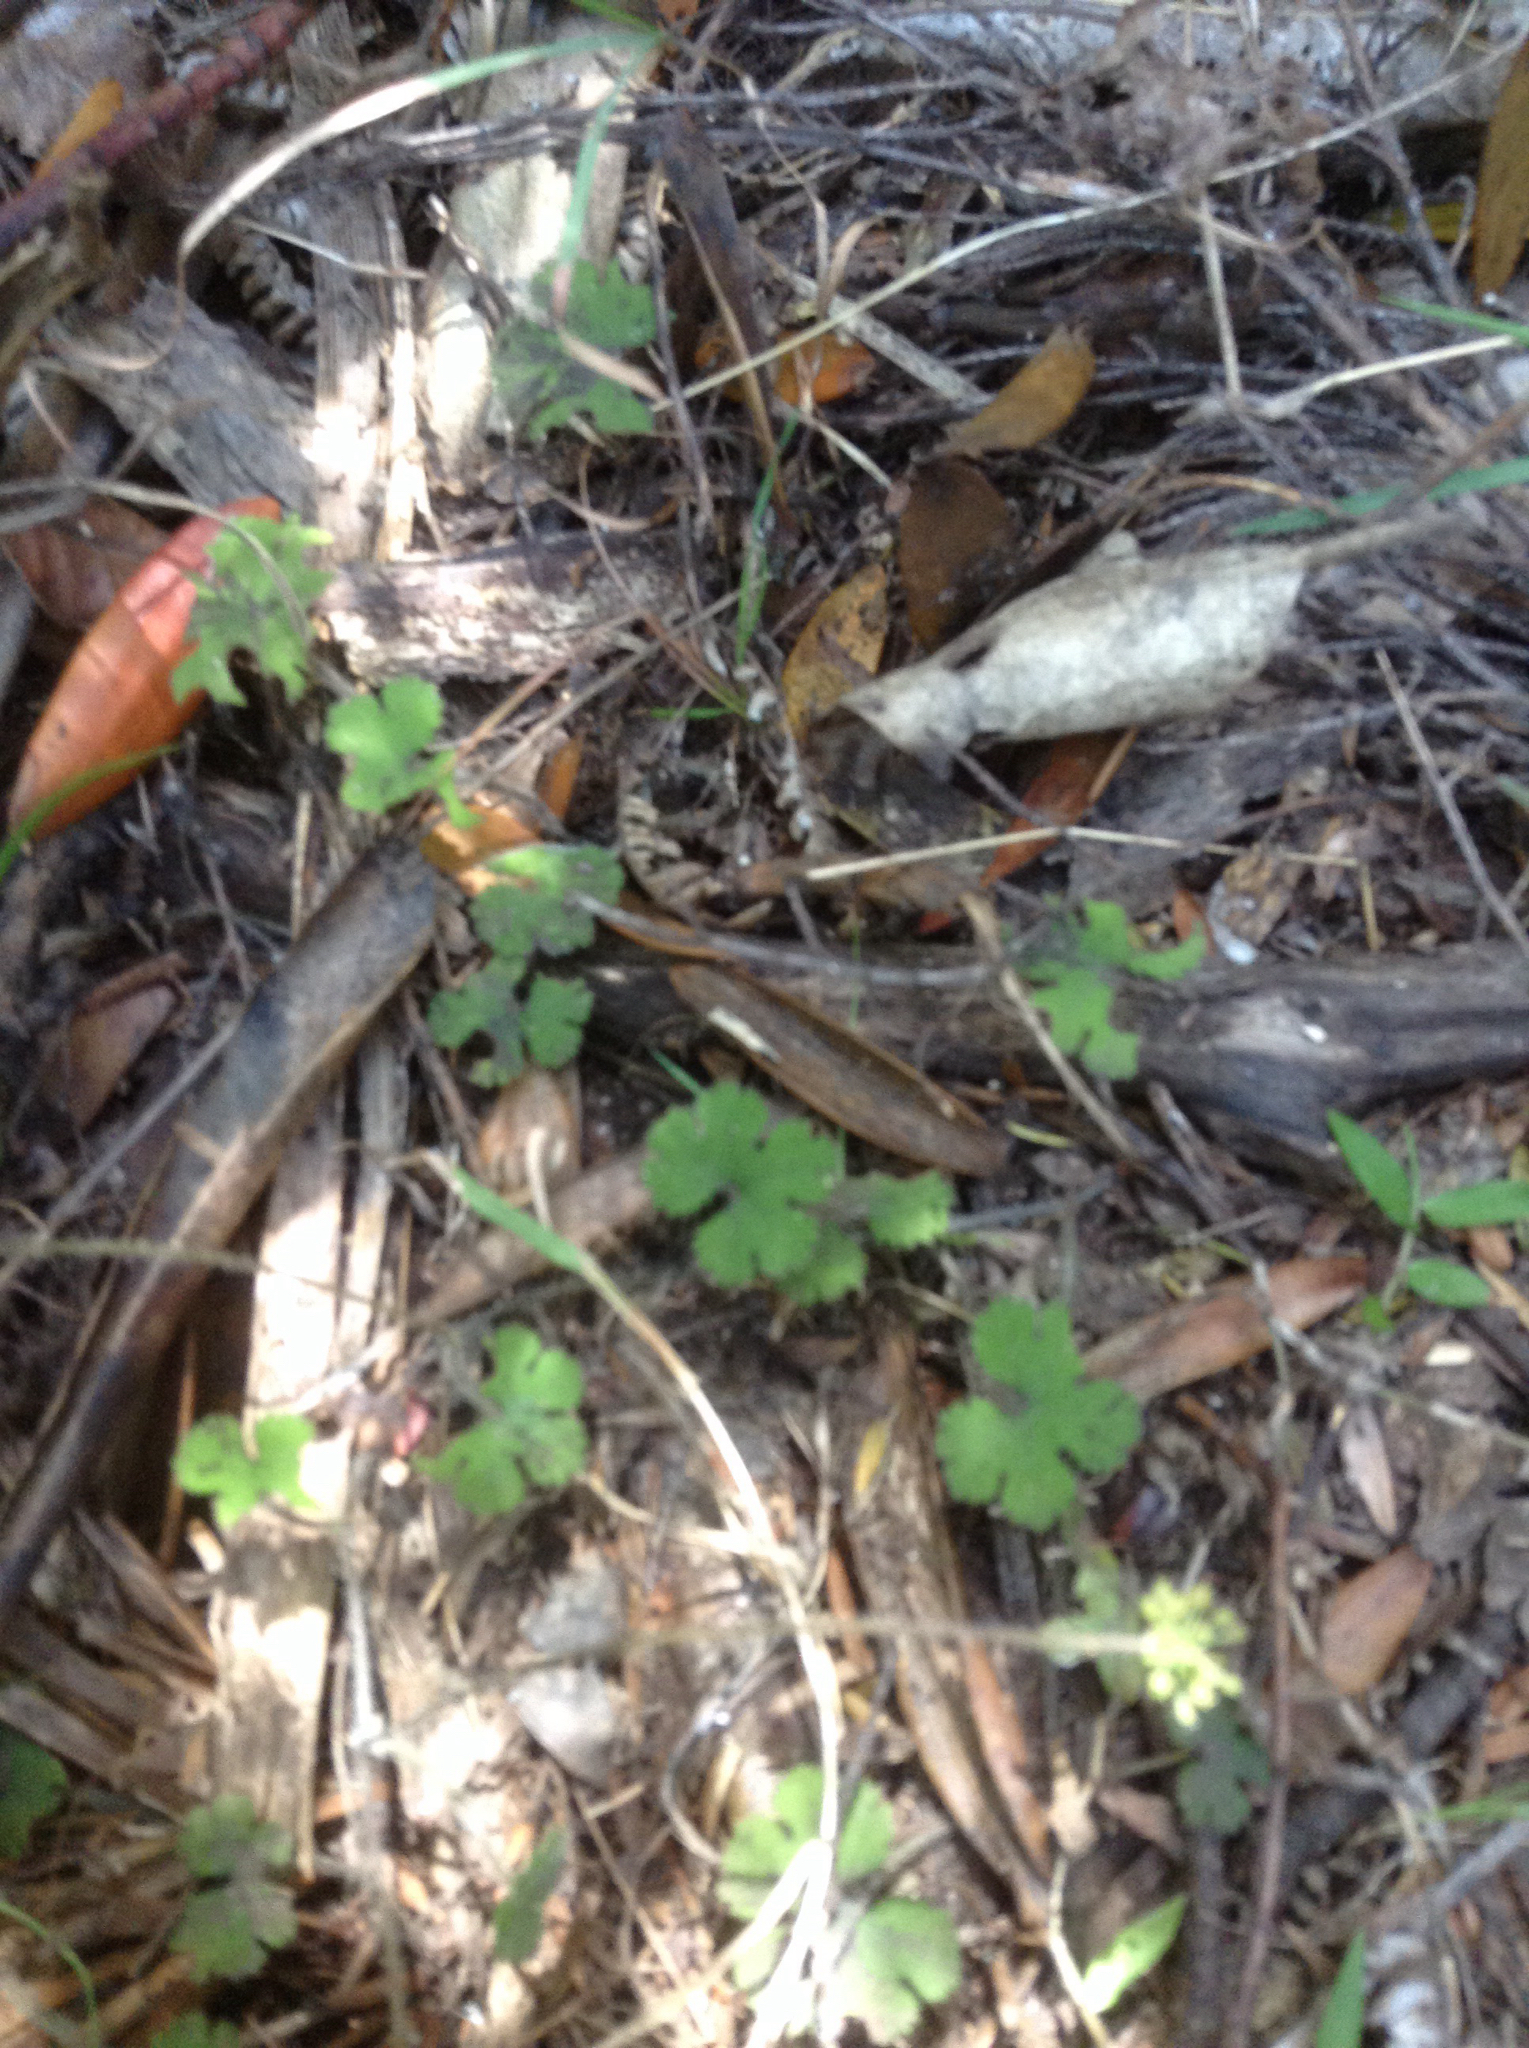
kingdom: Plantae
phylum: Tracheophyta
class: Magnoliopsida
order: Apiales
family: Araliaceae
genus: Hydrocotyle
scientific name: Hydrocotyle elongata
